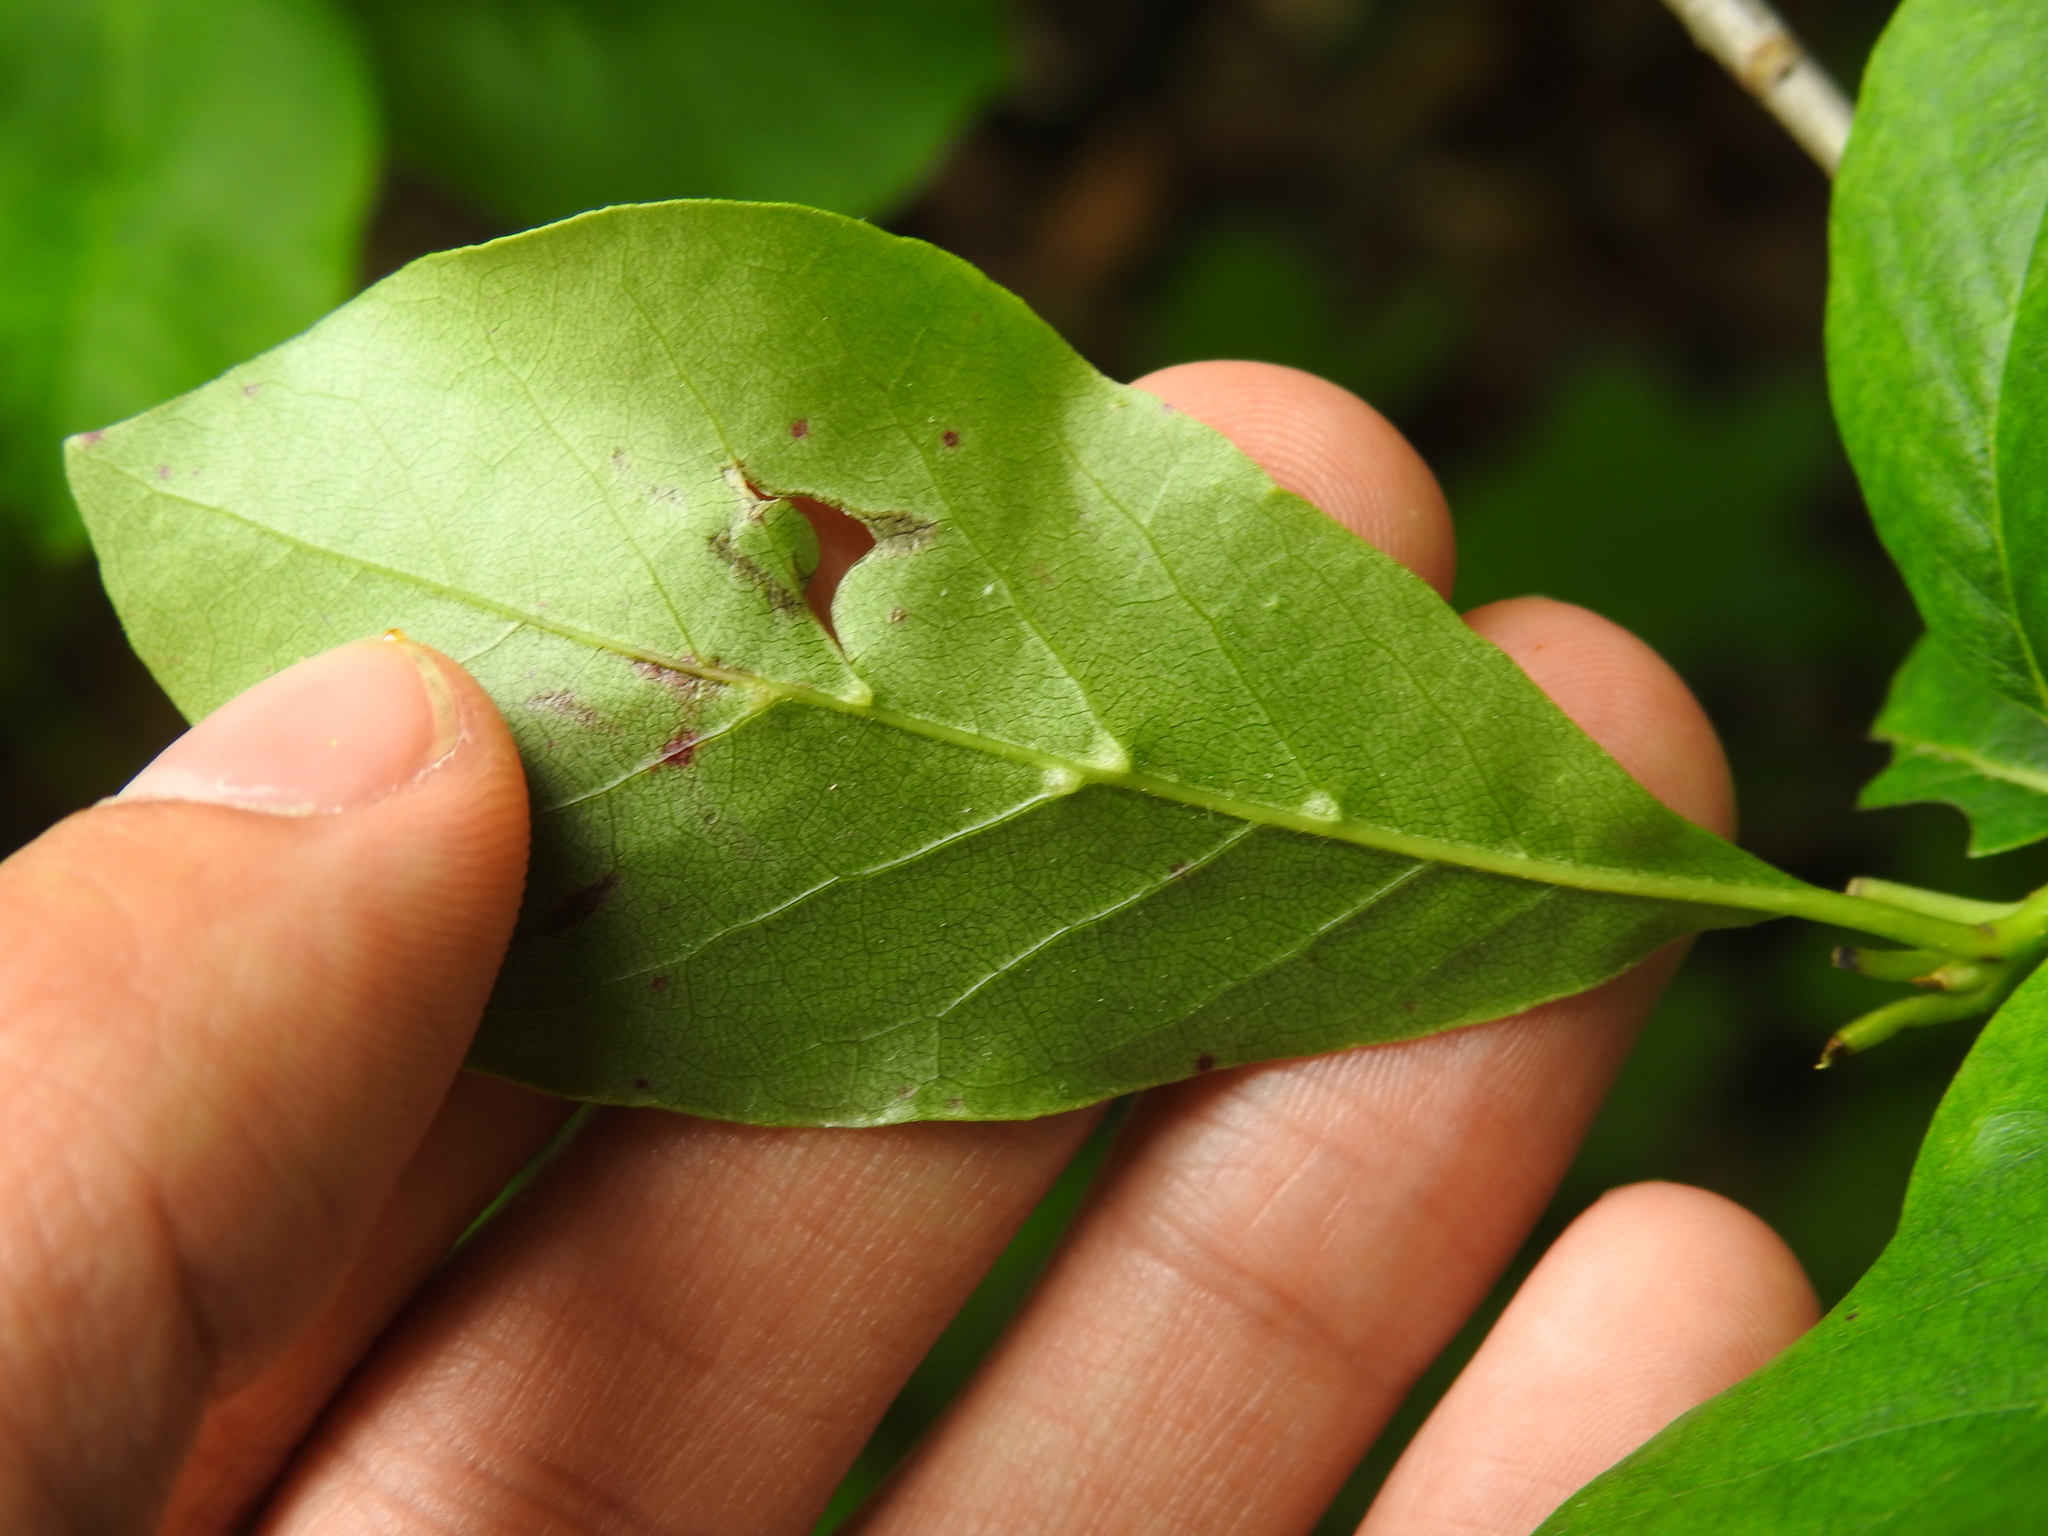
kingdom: Animalia
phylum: Arthropoda
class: Arachnida
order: Trombidiformes
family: Eriophyidae
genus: Cenalox
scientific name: Cenalox
